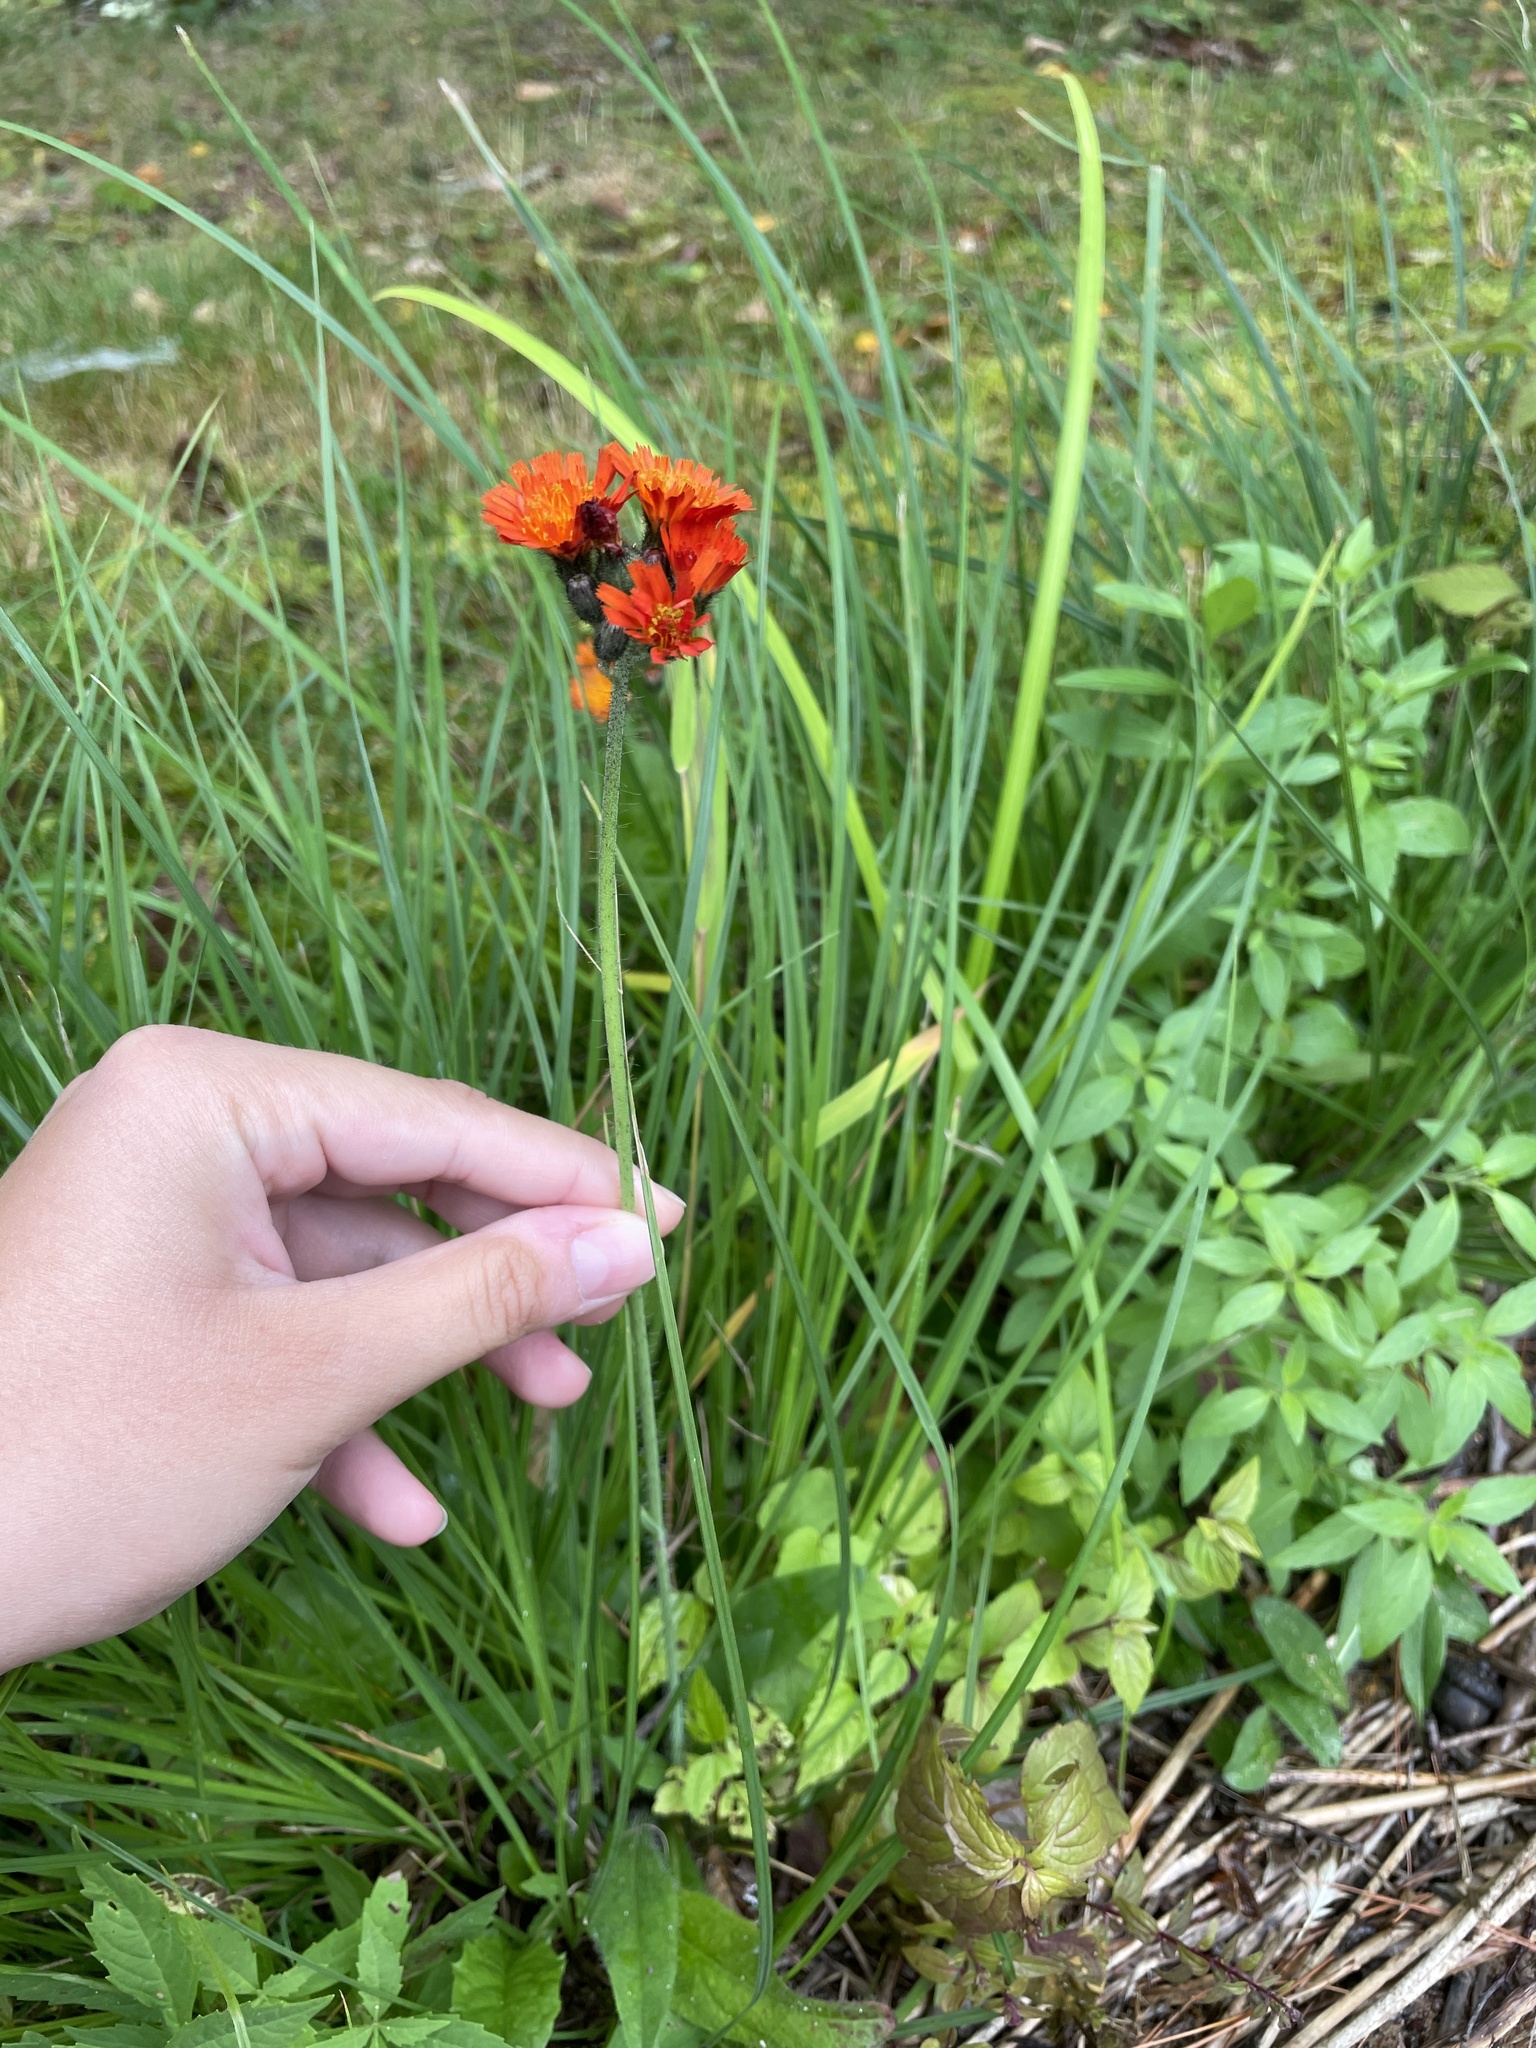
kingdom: Plantae
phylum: Tracheophyta
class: Magnoliopsida
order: Asterales
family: Asteraceae
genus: Pilosella
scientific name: Pilosella aurantiaca
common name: Fox-and-cubs
